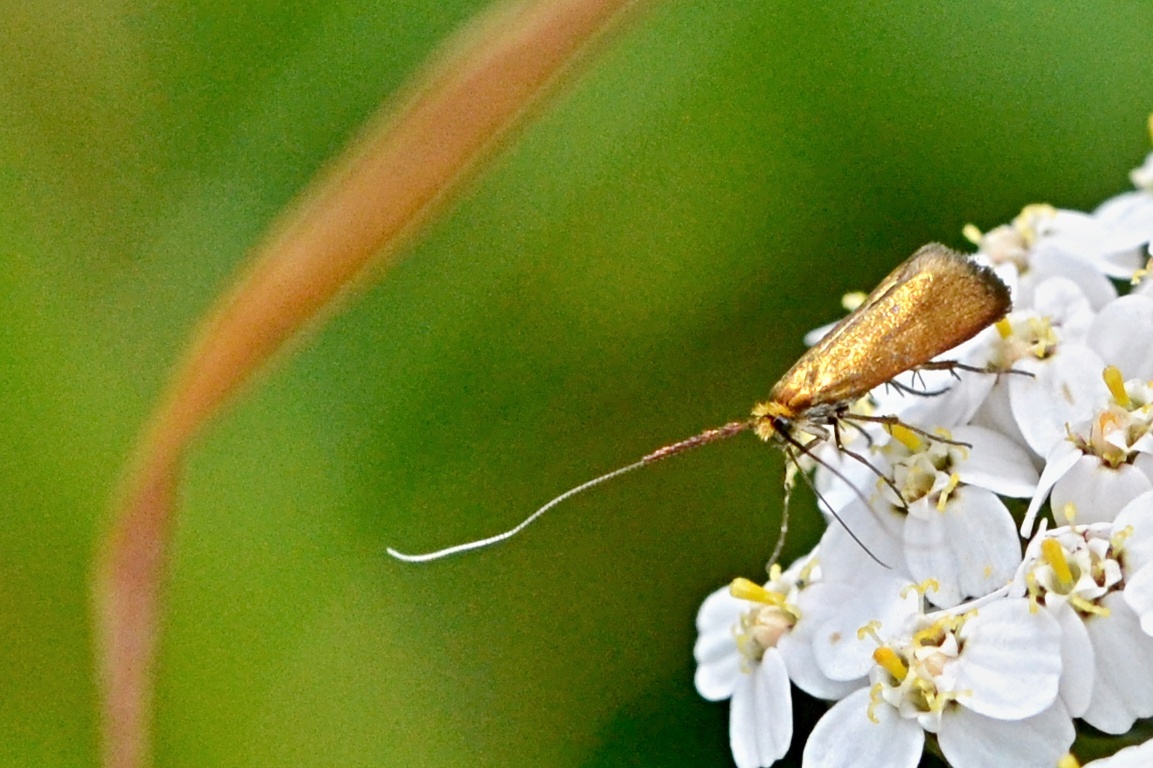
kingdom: Animalia
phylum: Arthropoda
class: Insecta
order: Lepidoptera
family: Adelidae
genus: Adela
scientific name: Adela violella
